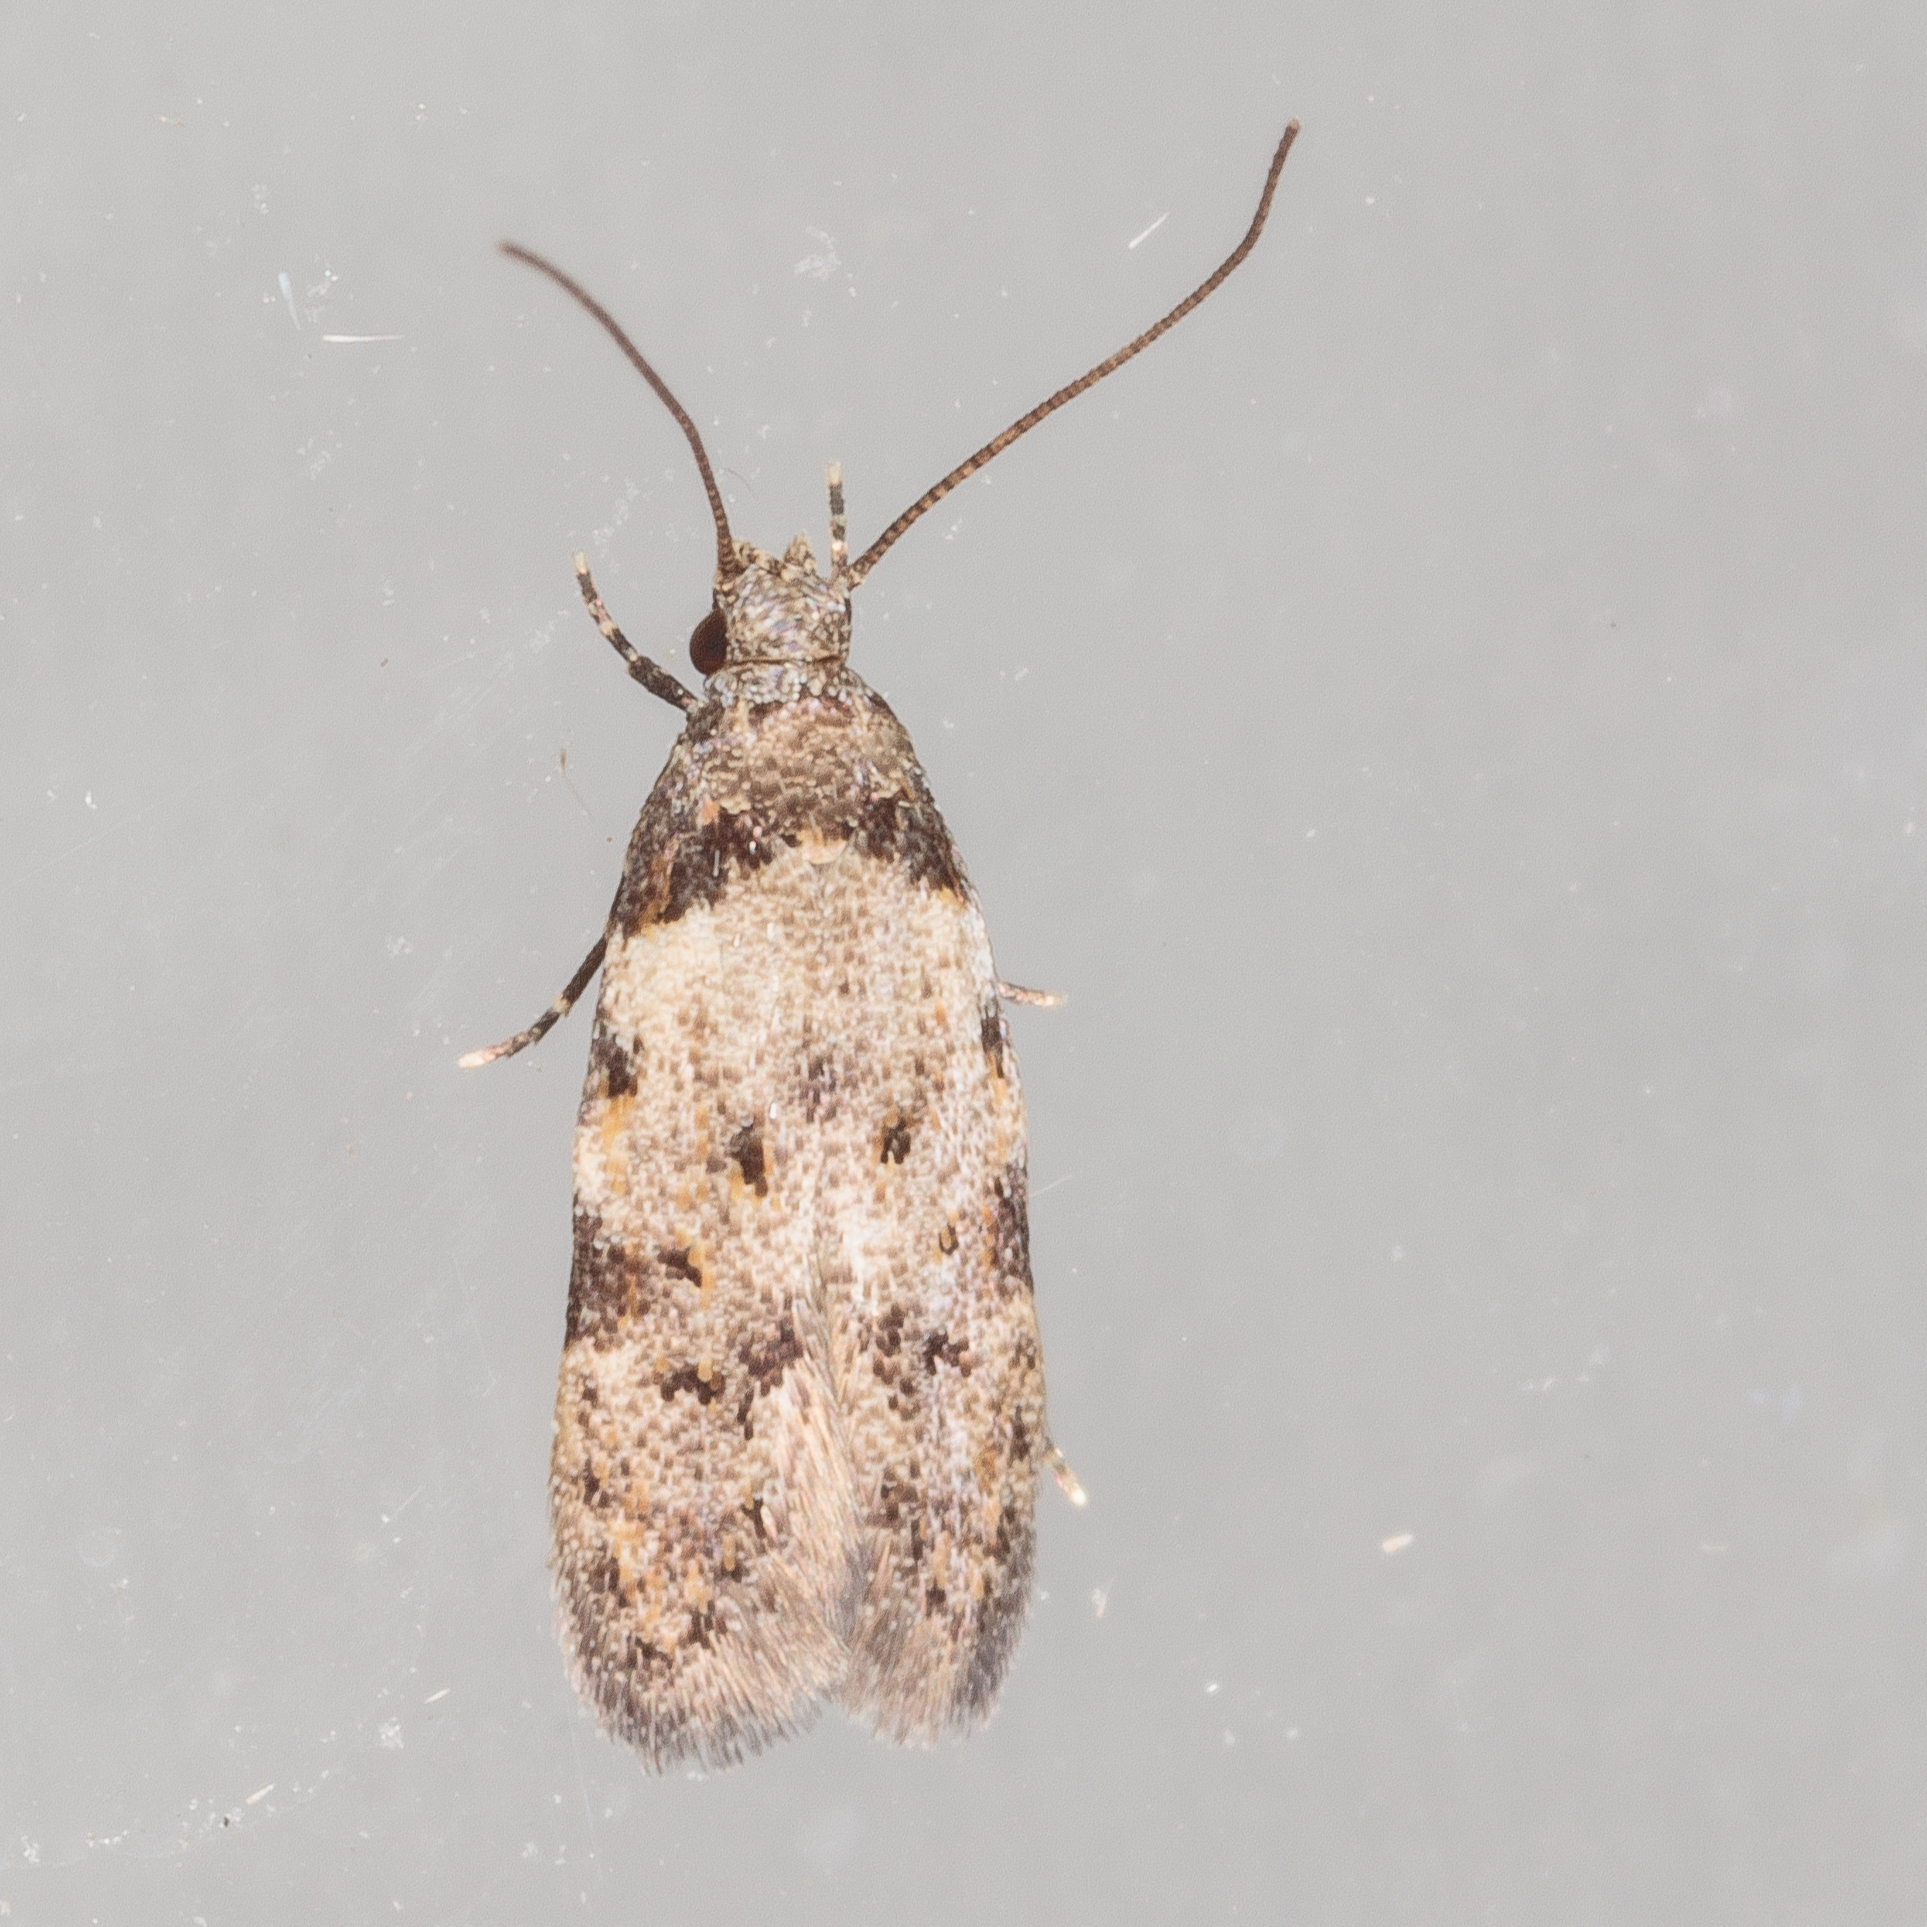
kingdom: Animalia
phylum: Arthropoda
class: Insecta
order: Lepidoptera
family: Autostichidae
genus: Taygete
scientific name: Taygete attributella
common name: Triangle-marked twirler moth
